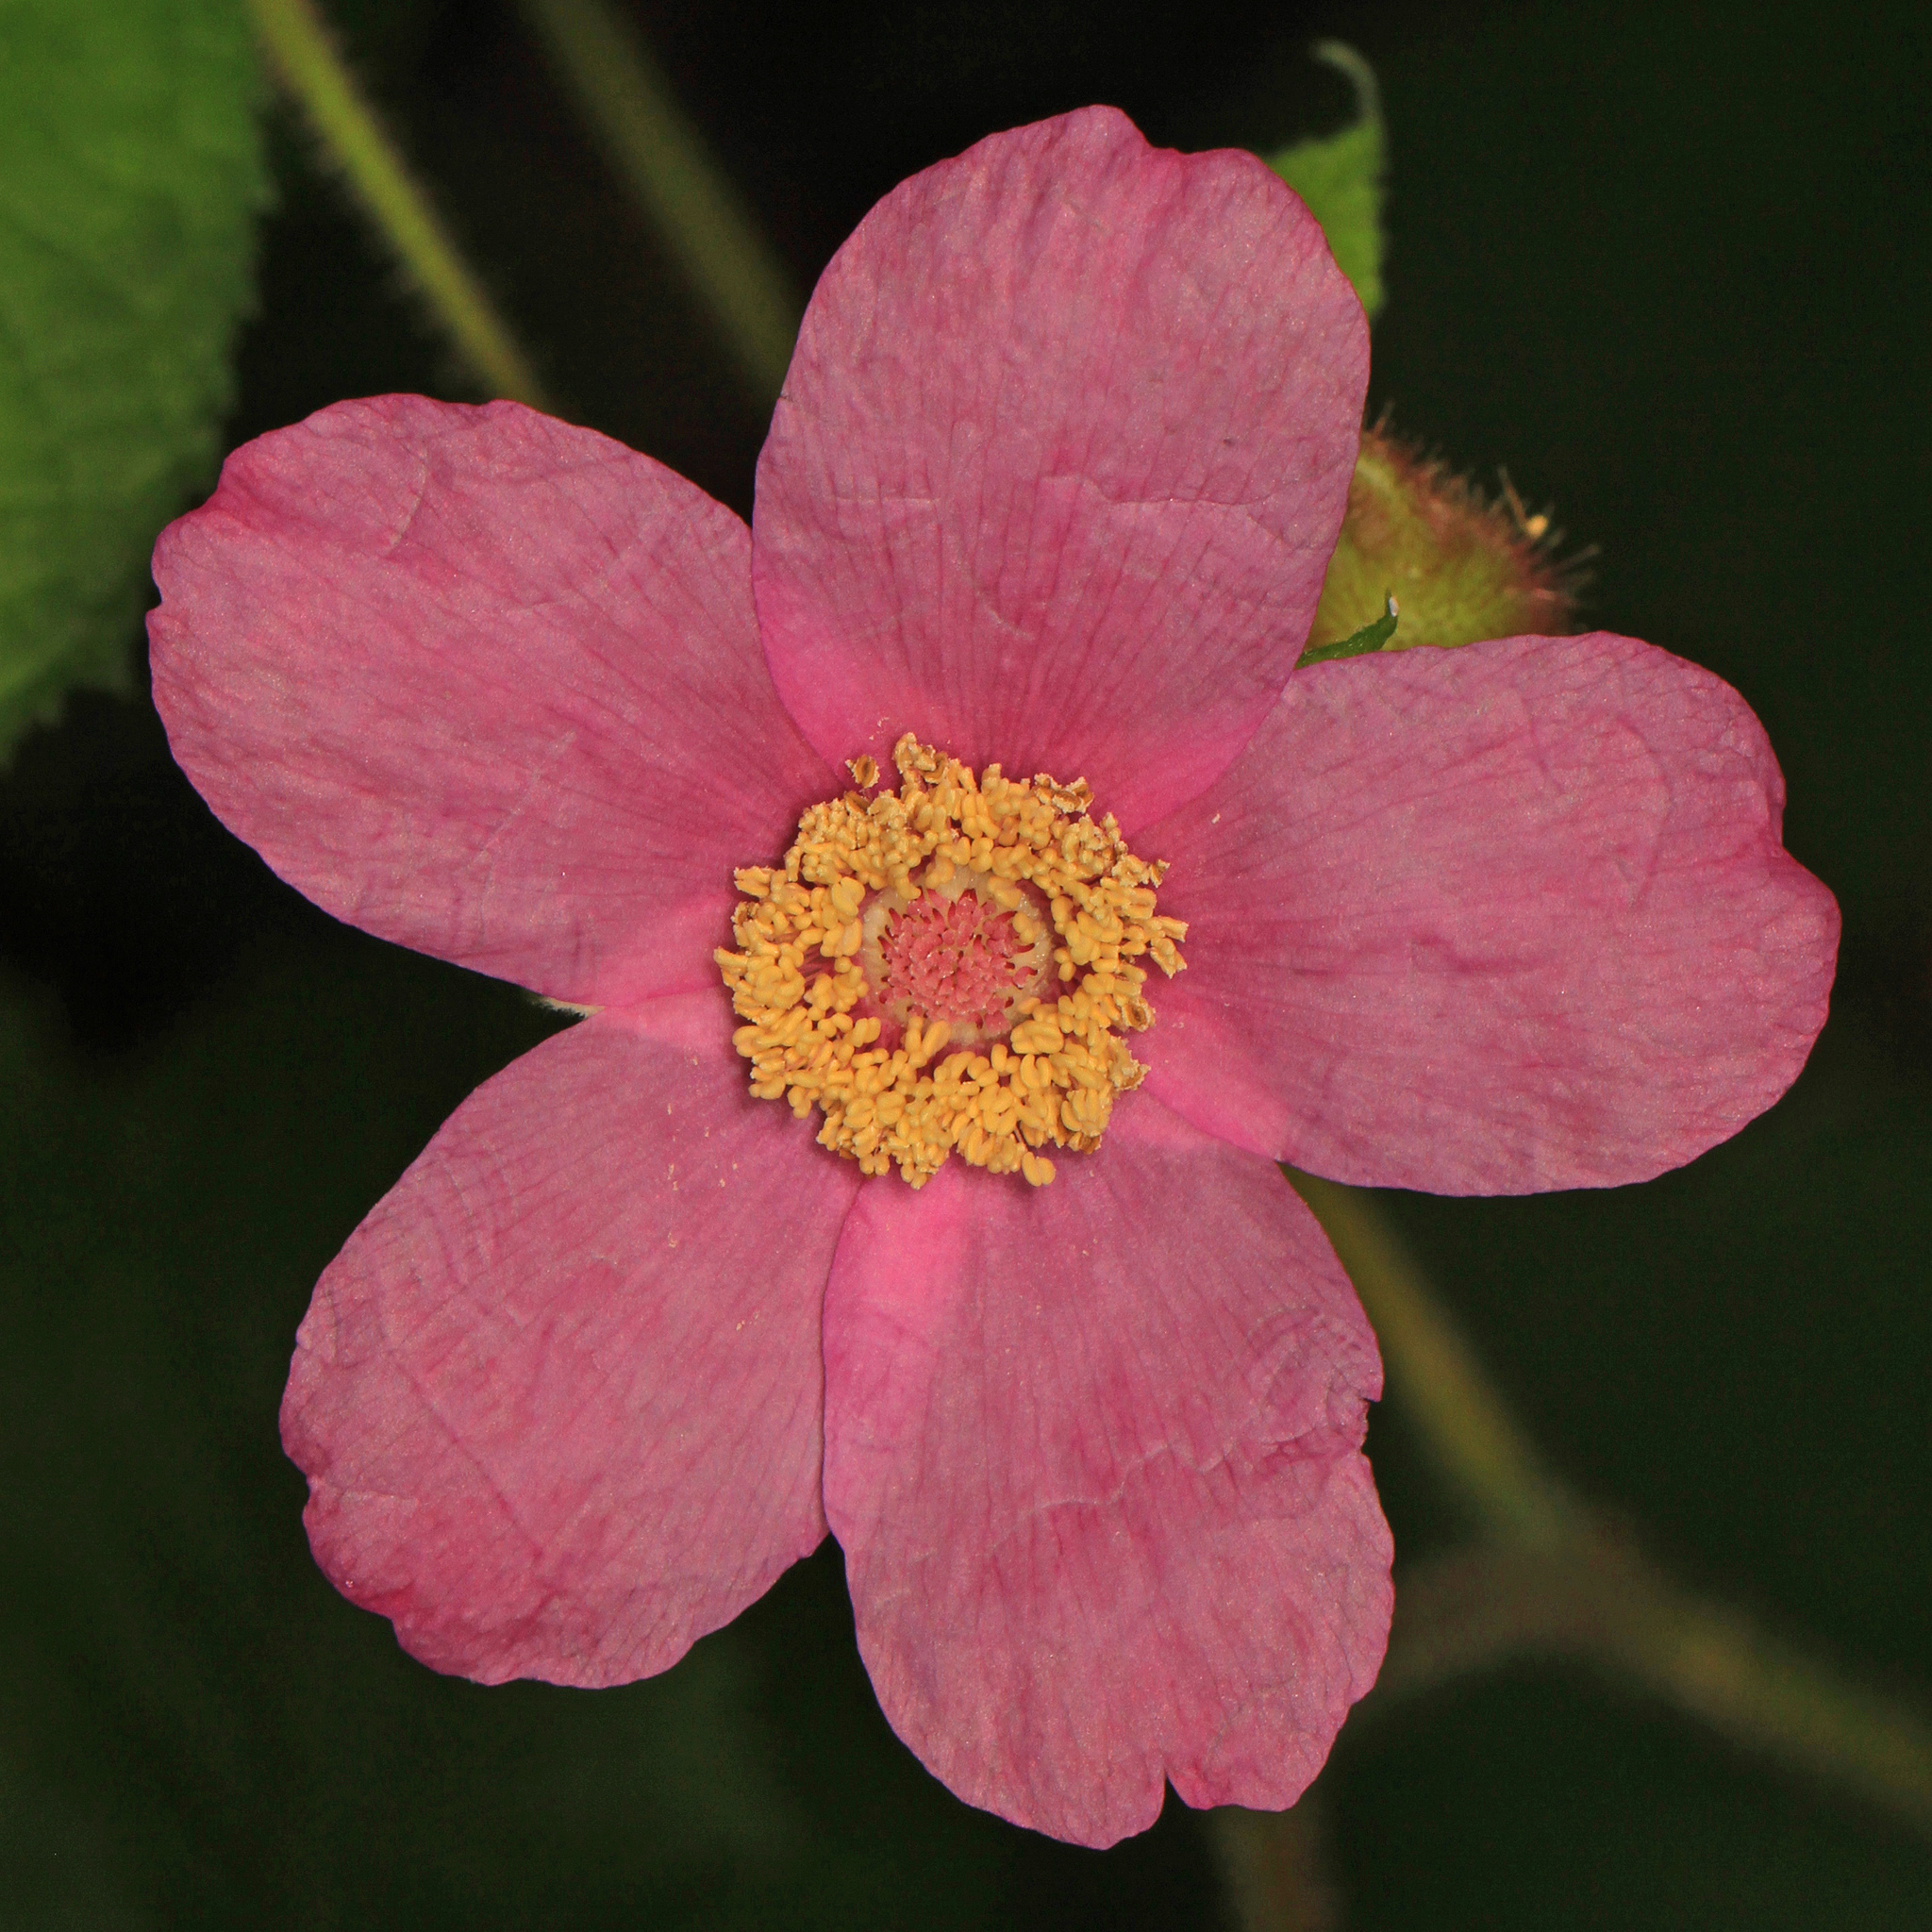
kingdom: Plantae
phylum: Tracheophyta
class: Magnoliopsida
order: Rosales
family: Rosaceae
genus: Rubus
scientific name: Rubus odoratus
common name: Purple-flowered raspberry
